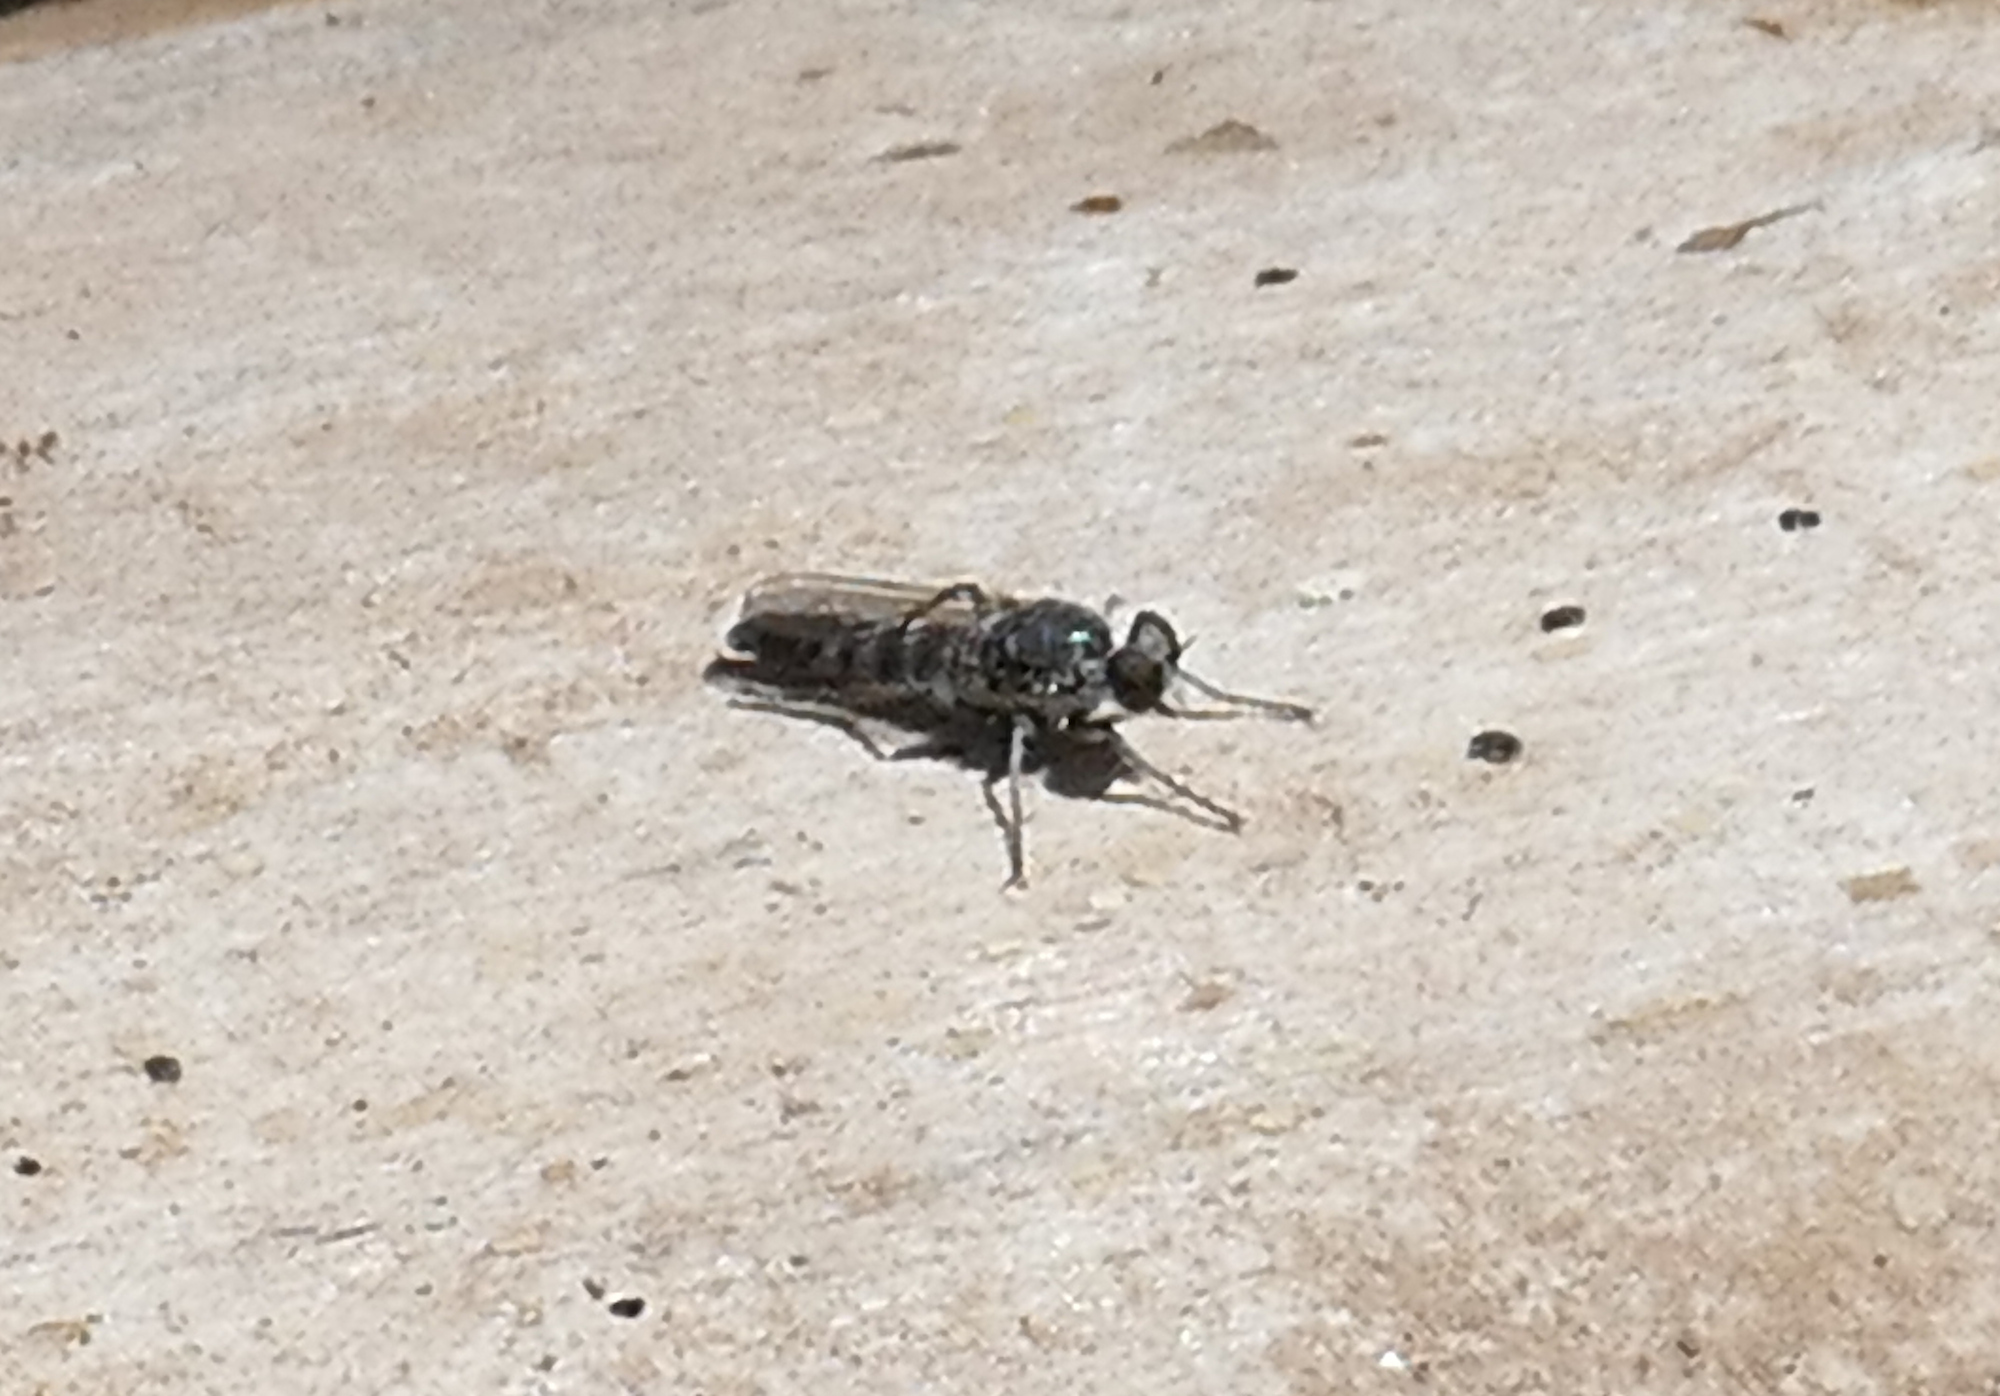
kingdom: Animalia
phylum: Arthropoda
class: Insecta
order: Diptera
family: Asilidae
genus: Stichopogon
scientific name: Stichopogon catulus
